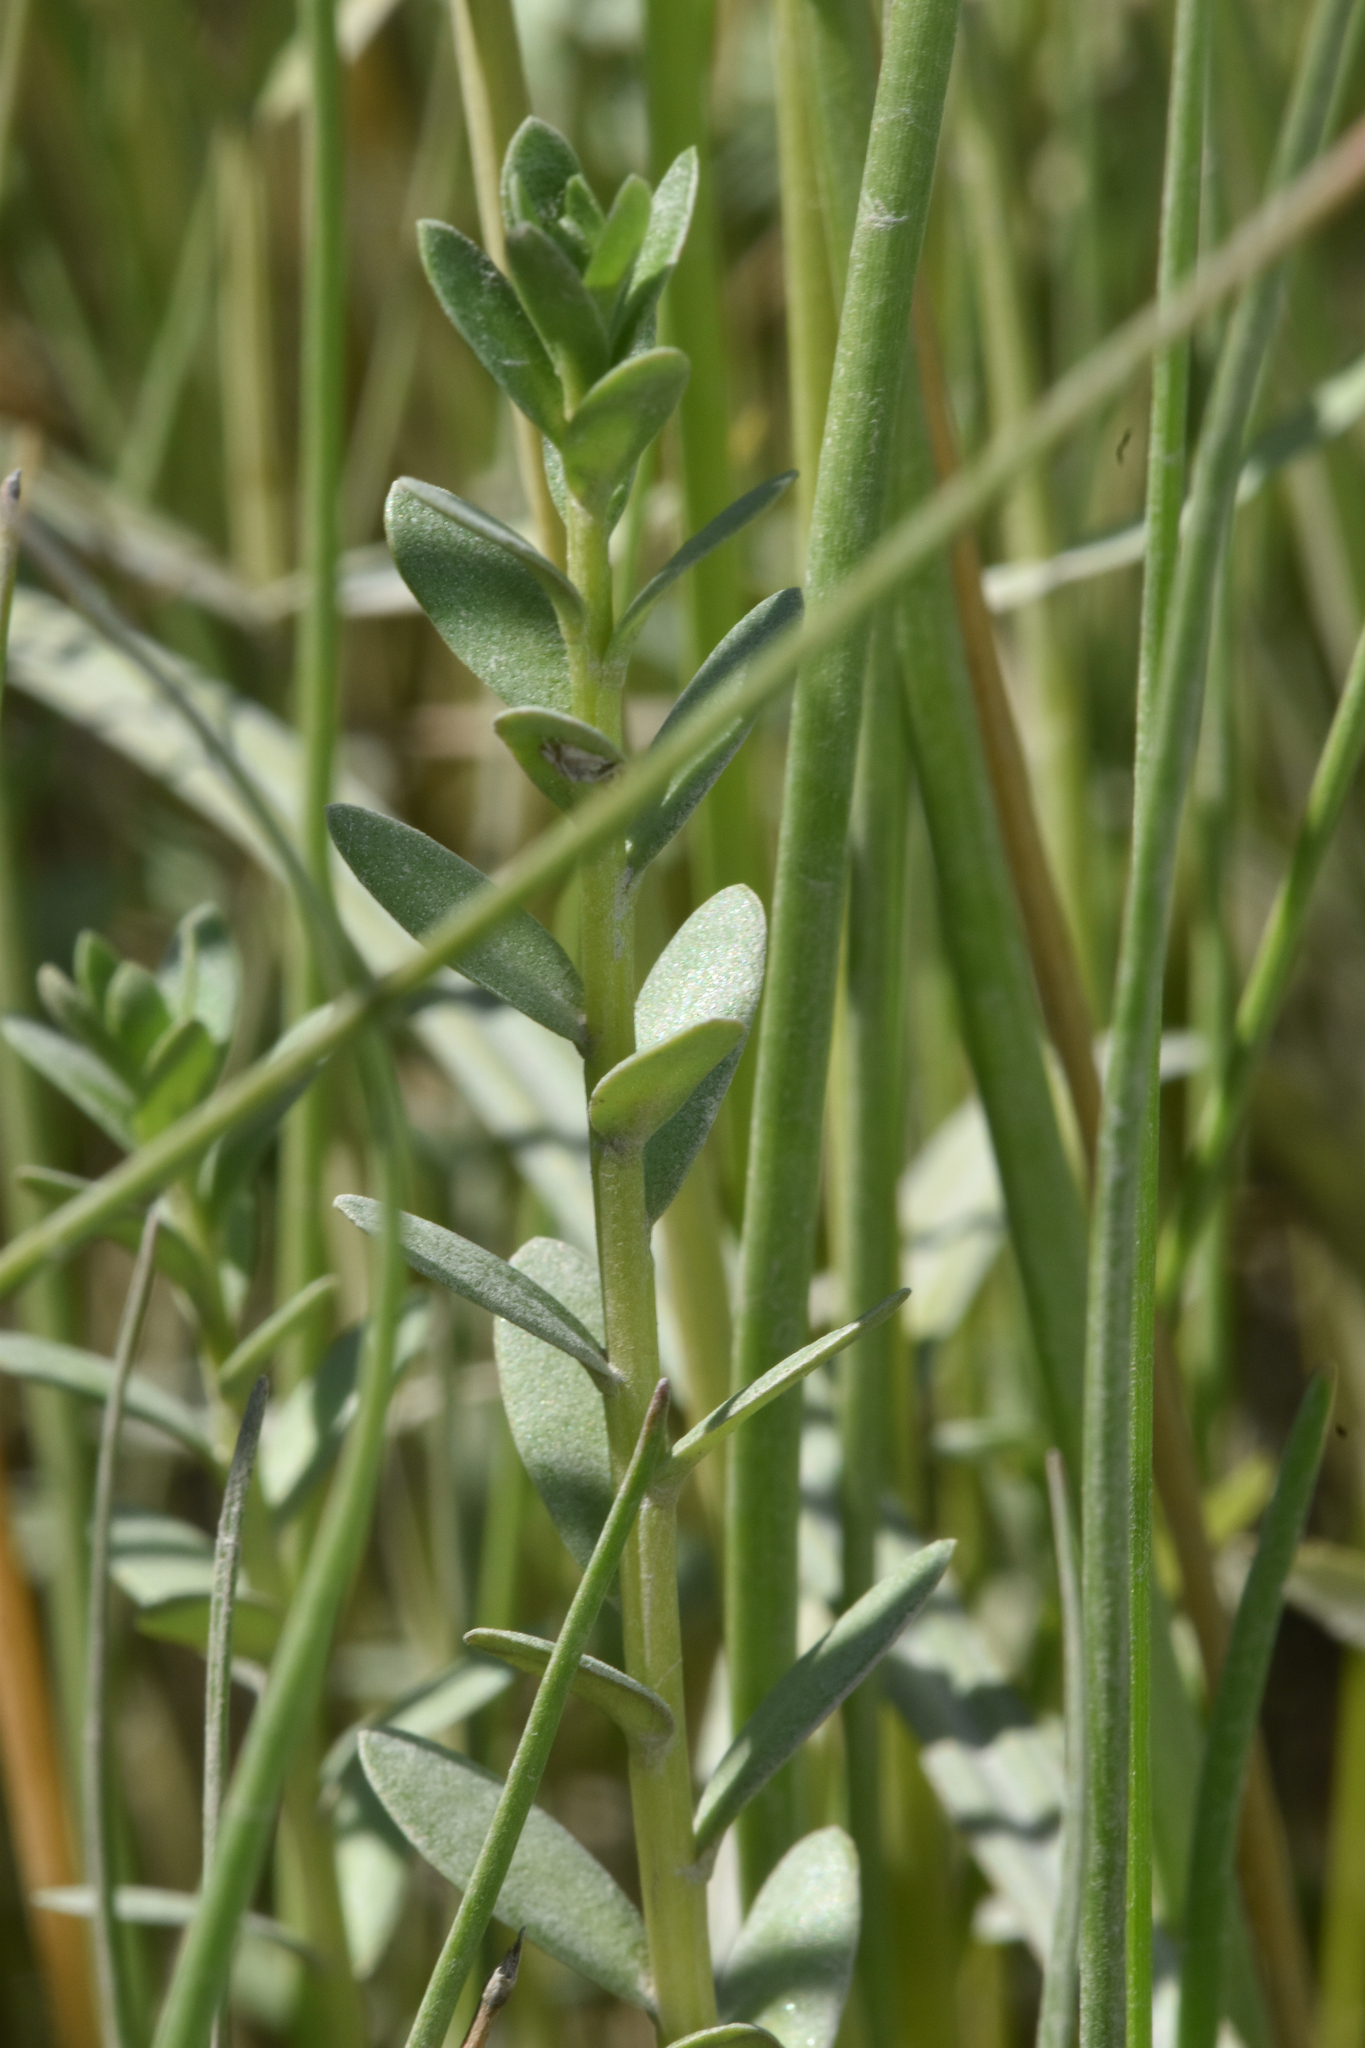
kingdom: Plantae
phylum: Tracheophyta
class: Magnoliopsida
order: Ericales
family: Primulaceae
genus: Lysimachia
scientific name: Lysimachia maritima
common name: Sea milkwort
